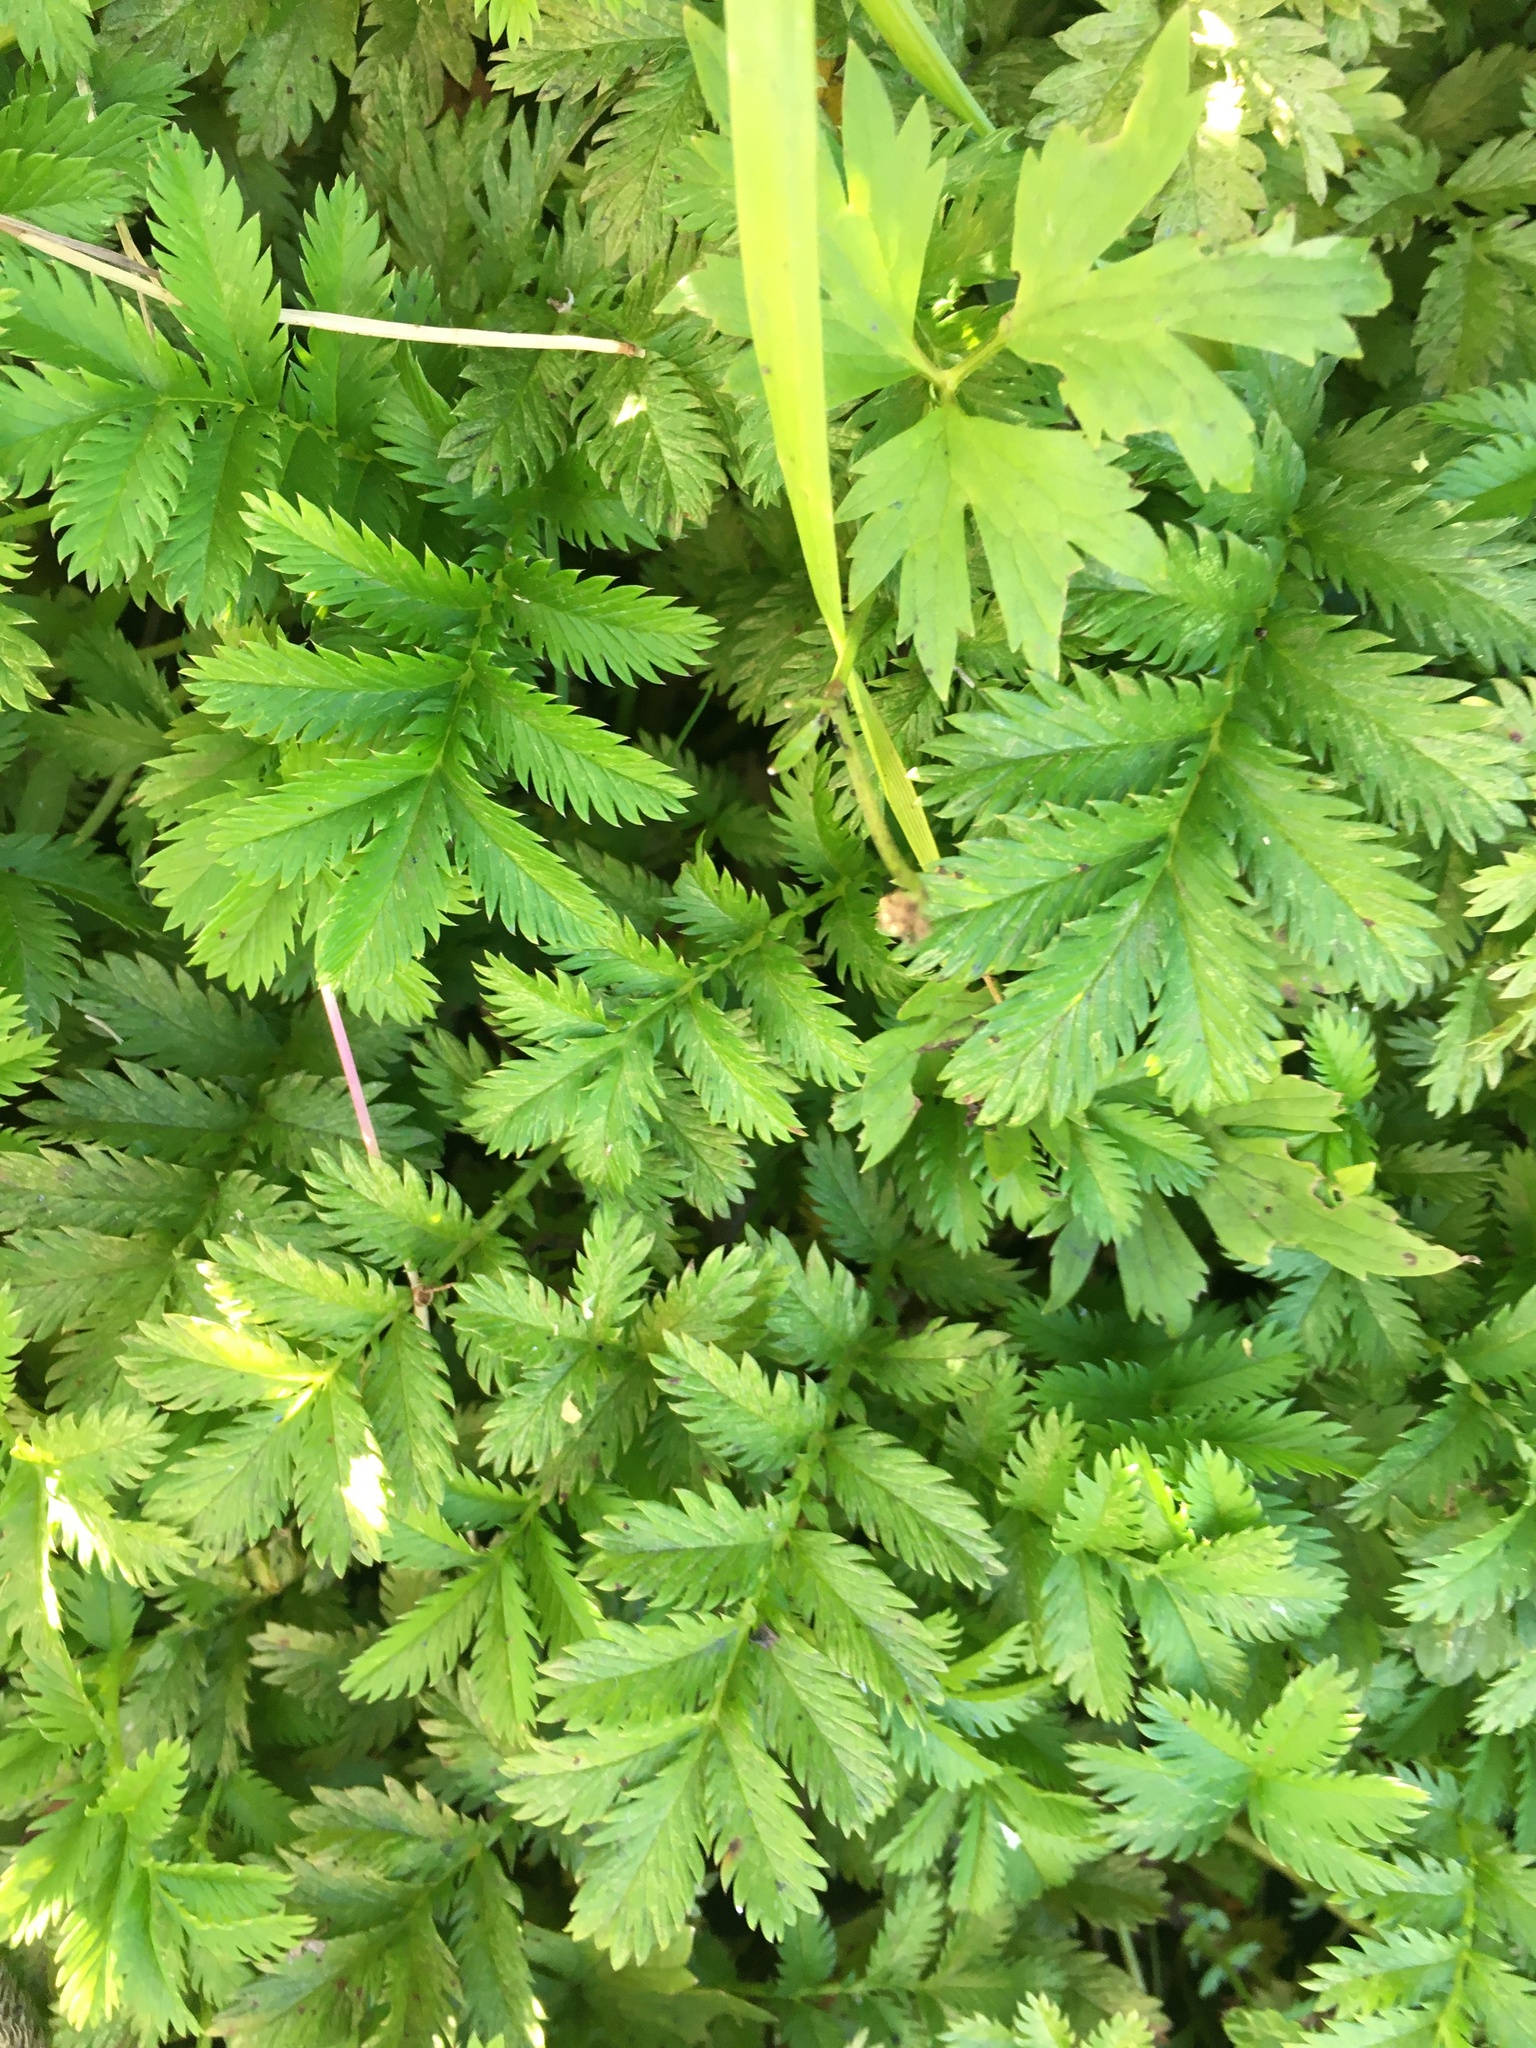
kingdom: Plantae
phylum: Tracheophyta
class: Magnoliopsida
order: Rosales
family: Rosaceae
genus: Argentina
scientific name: Argentina anserina
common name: Common silverweed
